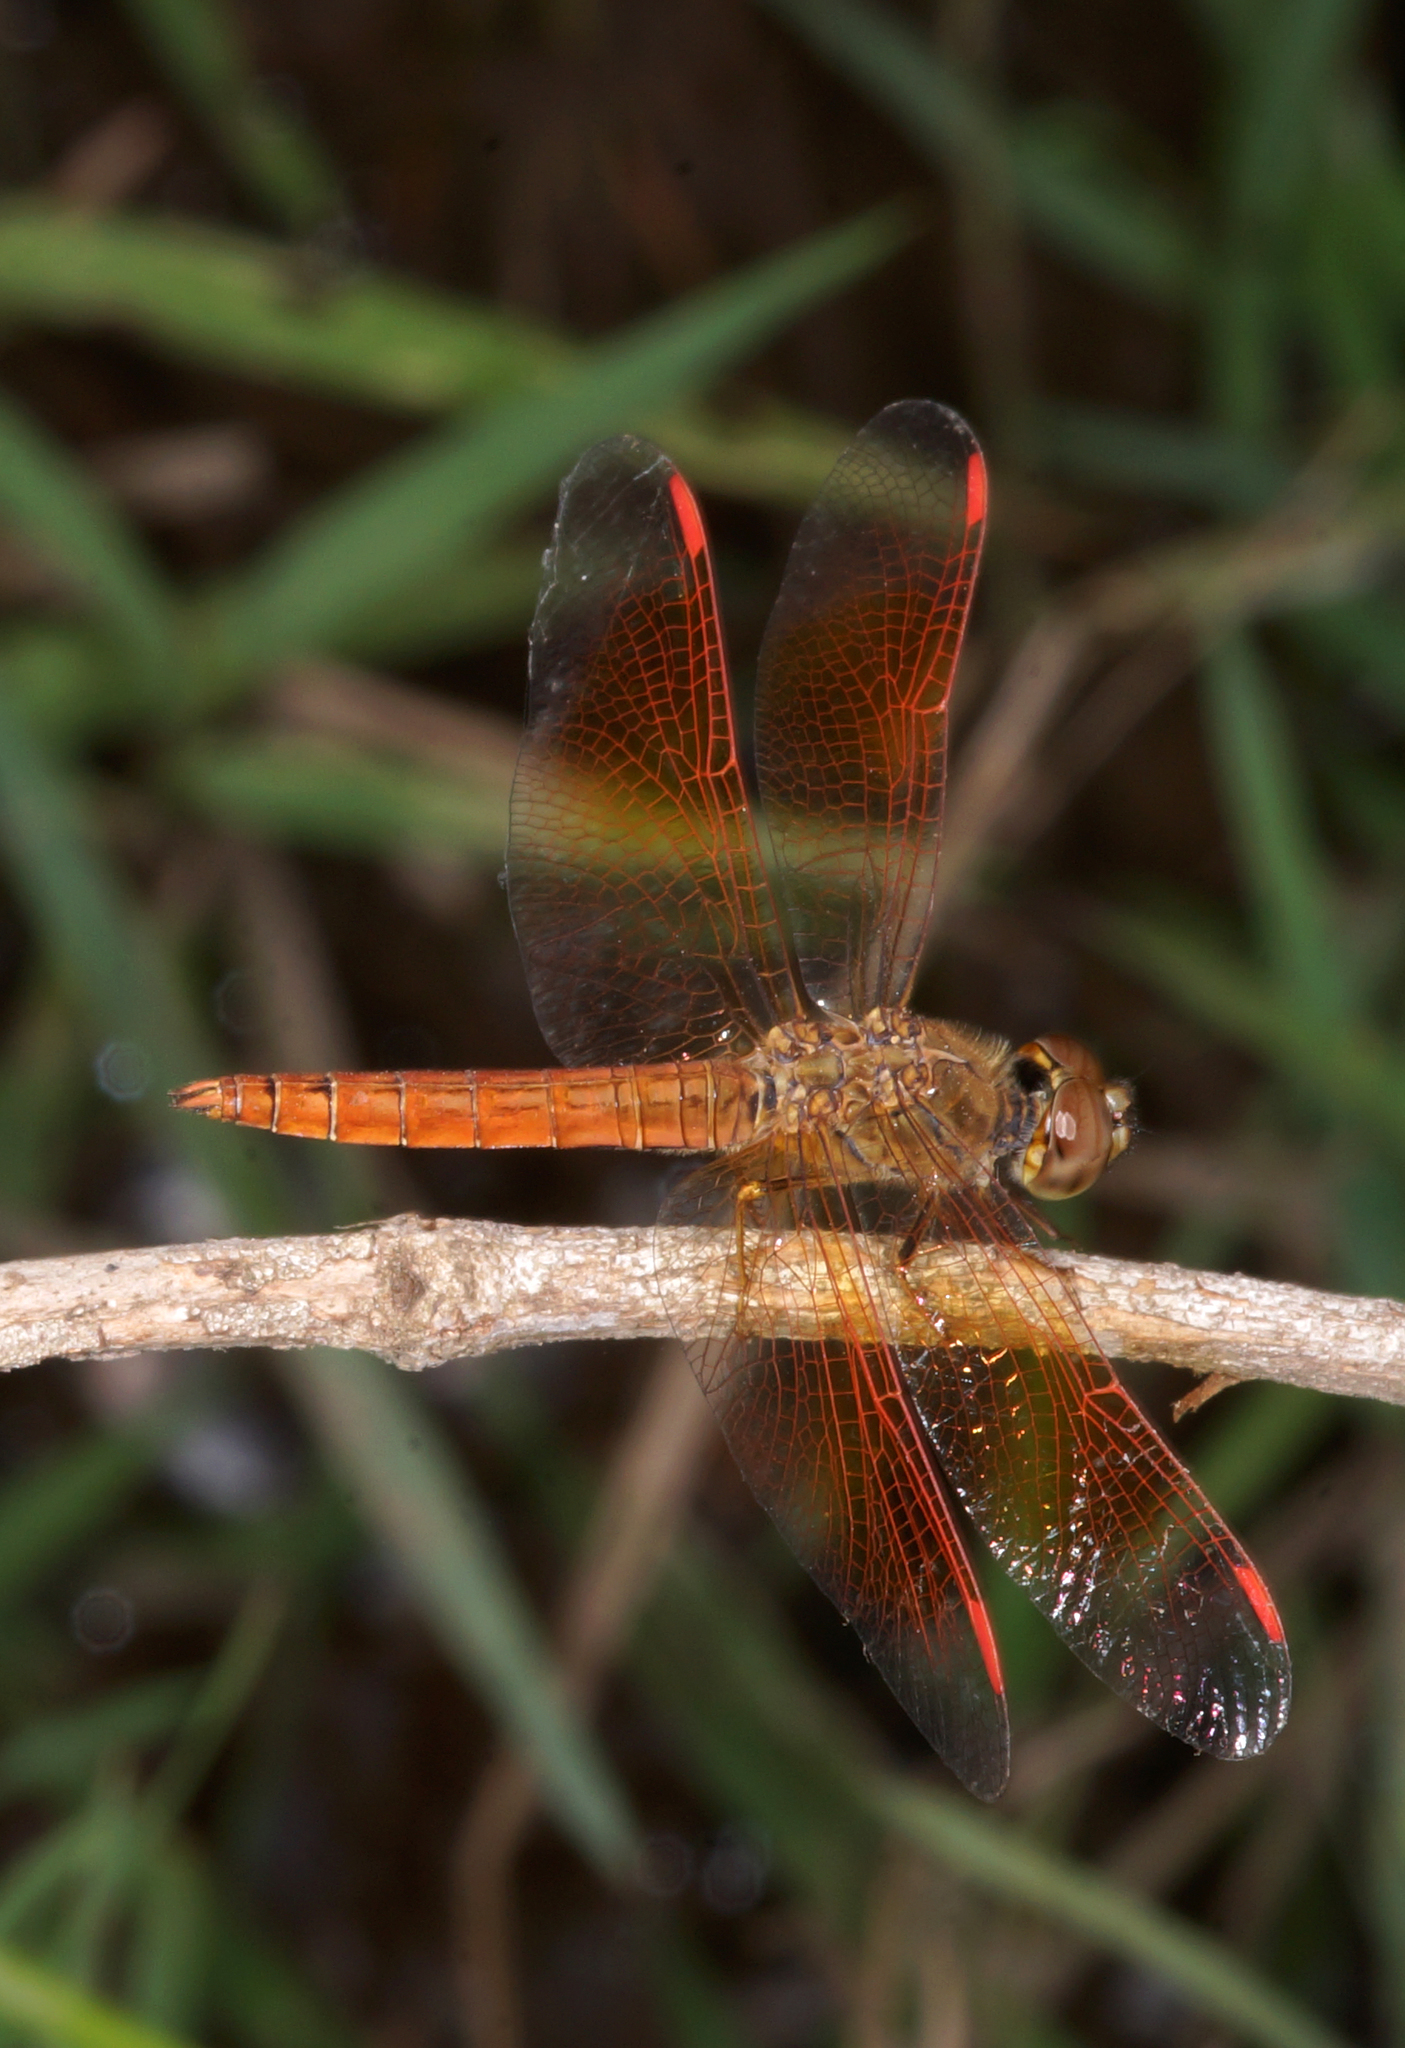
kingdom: Animalia
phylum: Arthropoda
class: Insecta
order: Odonata
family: Libellulidae
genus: Brachythemis
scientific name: Brachythemis contaminata
